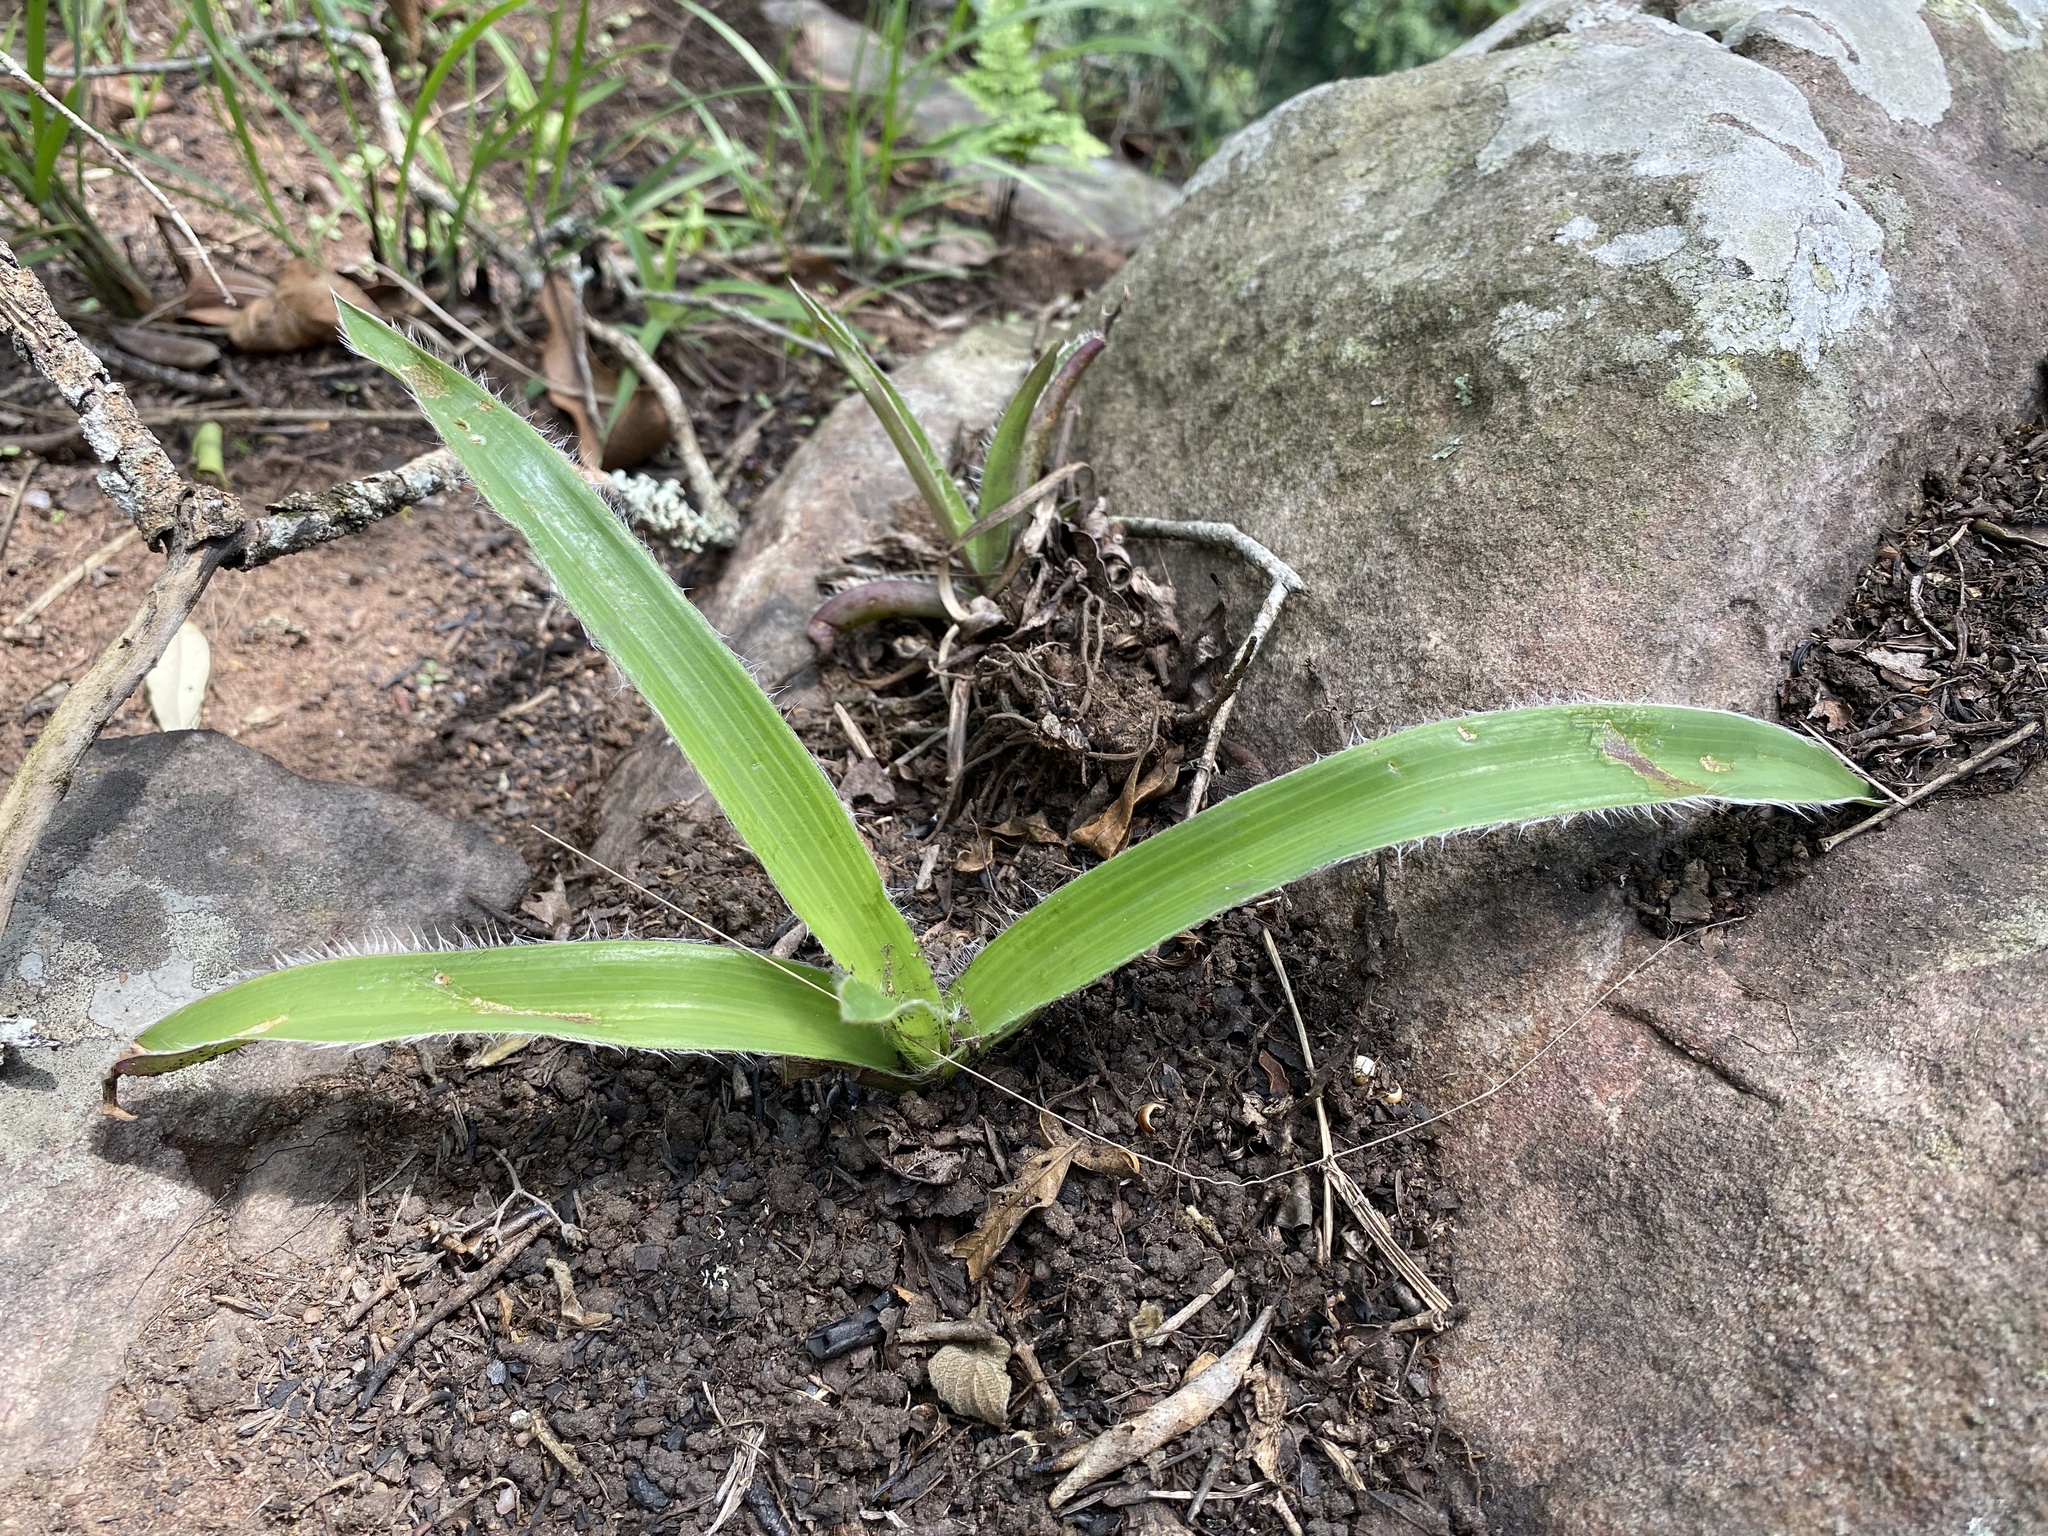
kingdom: Plantae
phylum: Tracheophyta
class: Liliopsida
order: Commelinales
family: Commelinaceae
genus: Cyanotis
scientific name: Cyanotis speciosa
